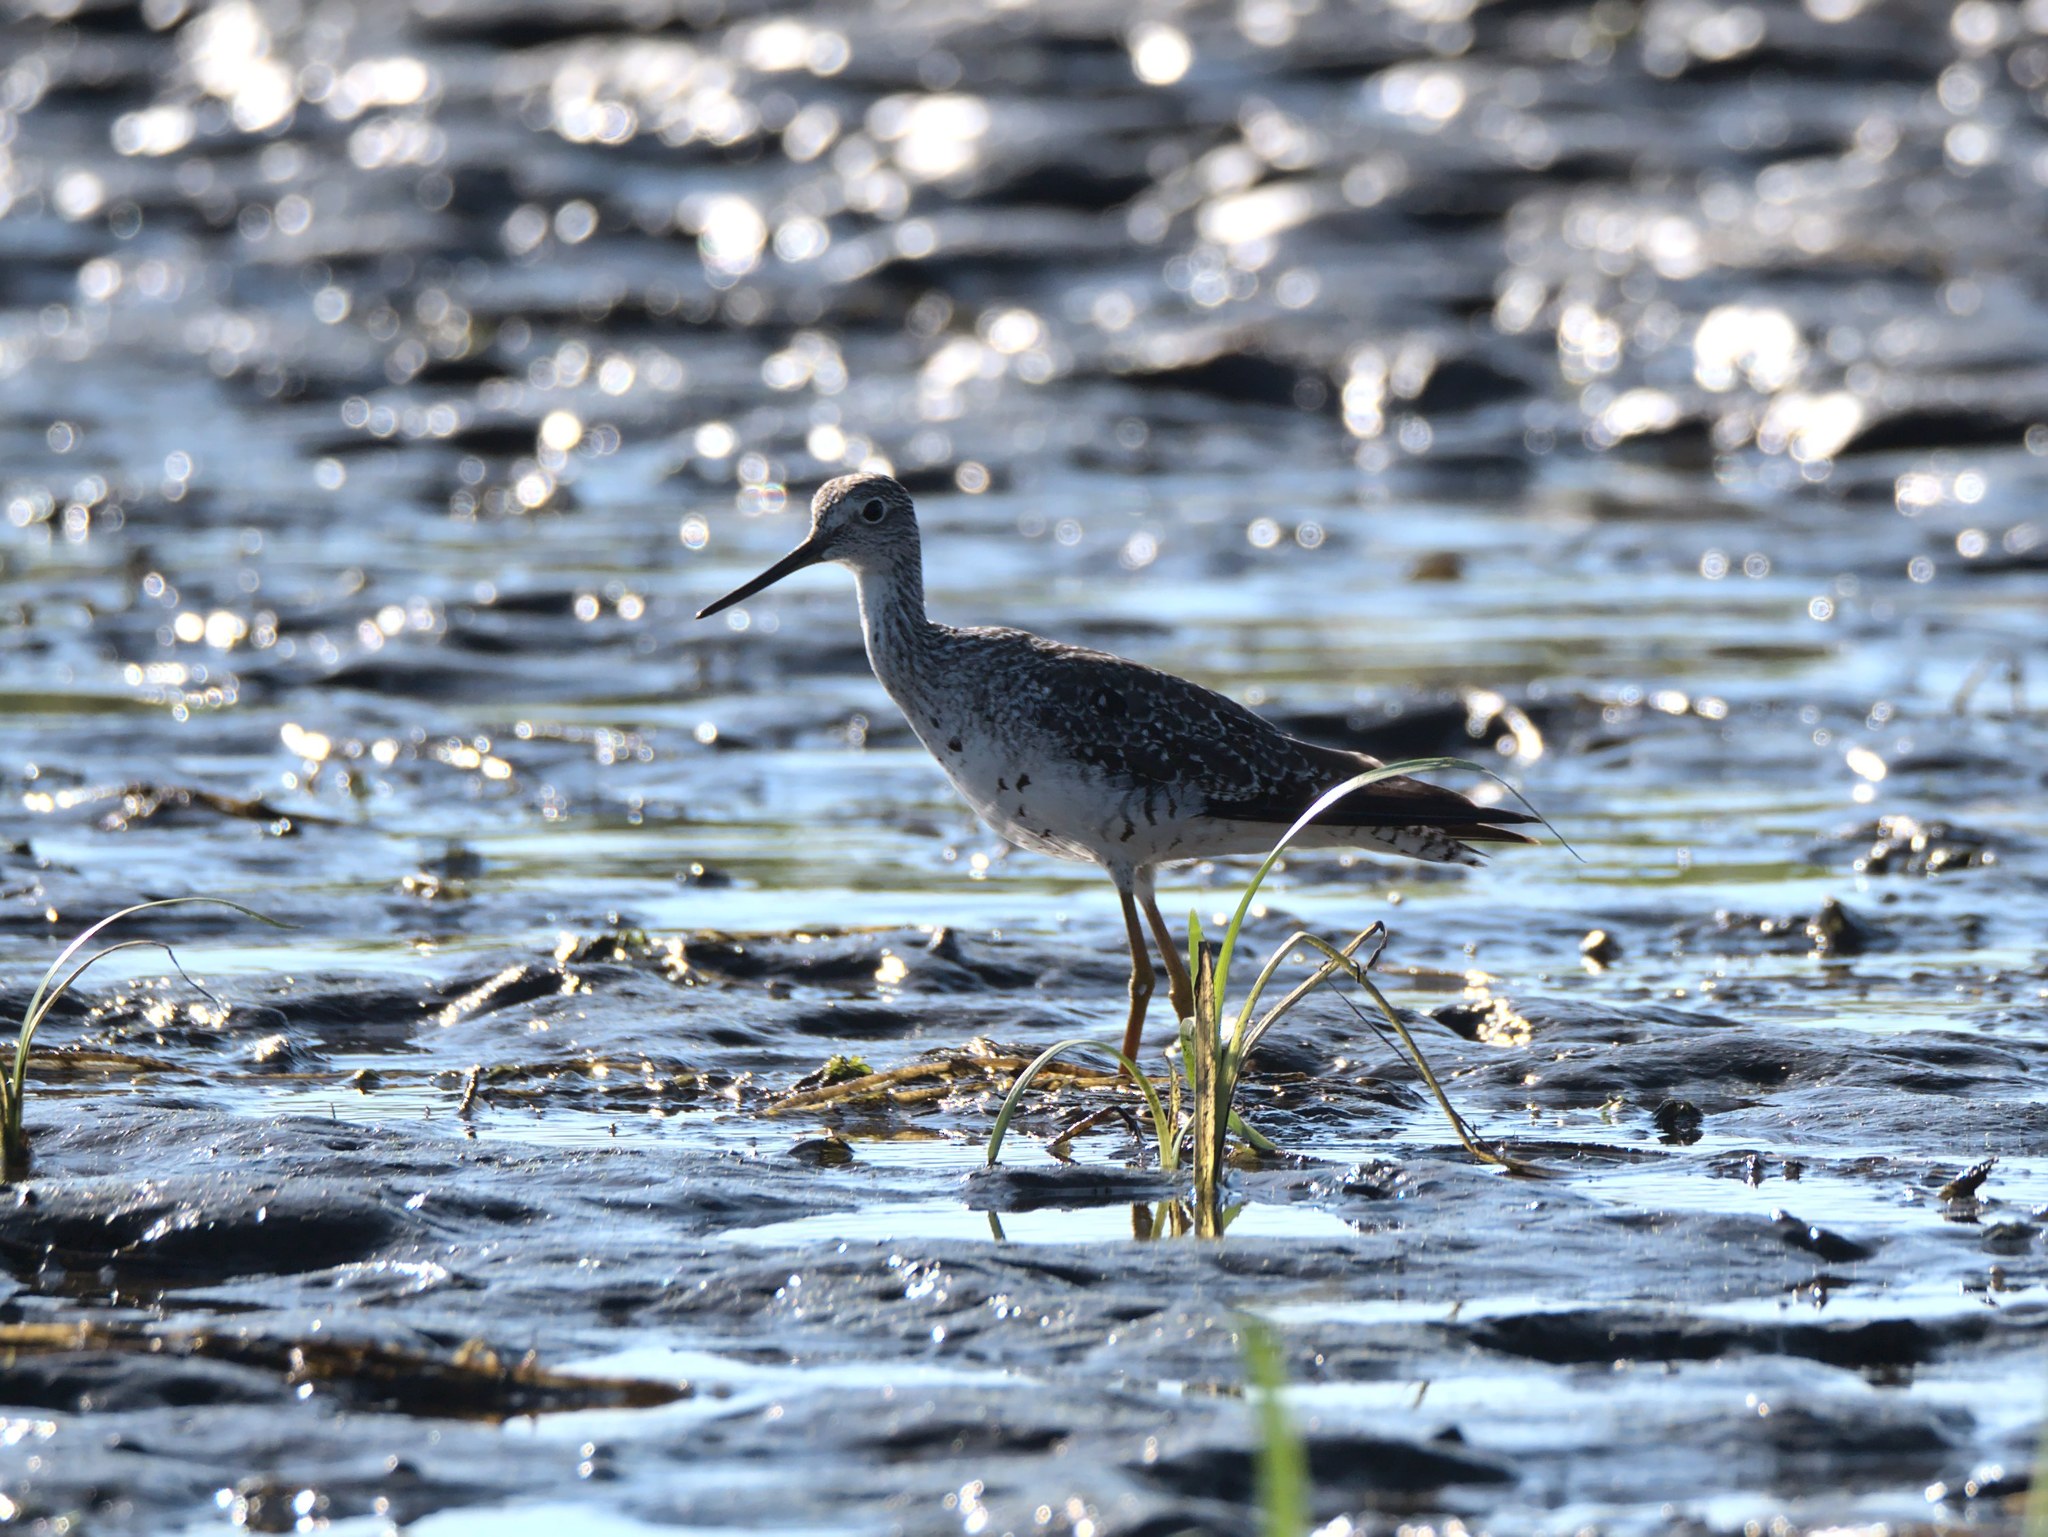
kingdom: Animalia
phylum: Chordata
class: Aves
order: Charadriiformes
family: Scolopacidae
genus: Tringa
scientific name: Tringa melanoleuca
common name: Greater yellowlegs
